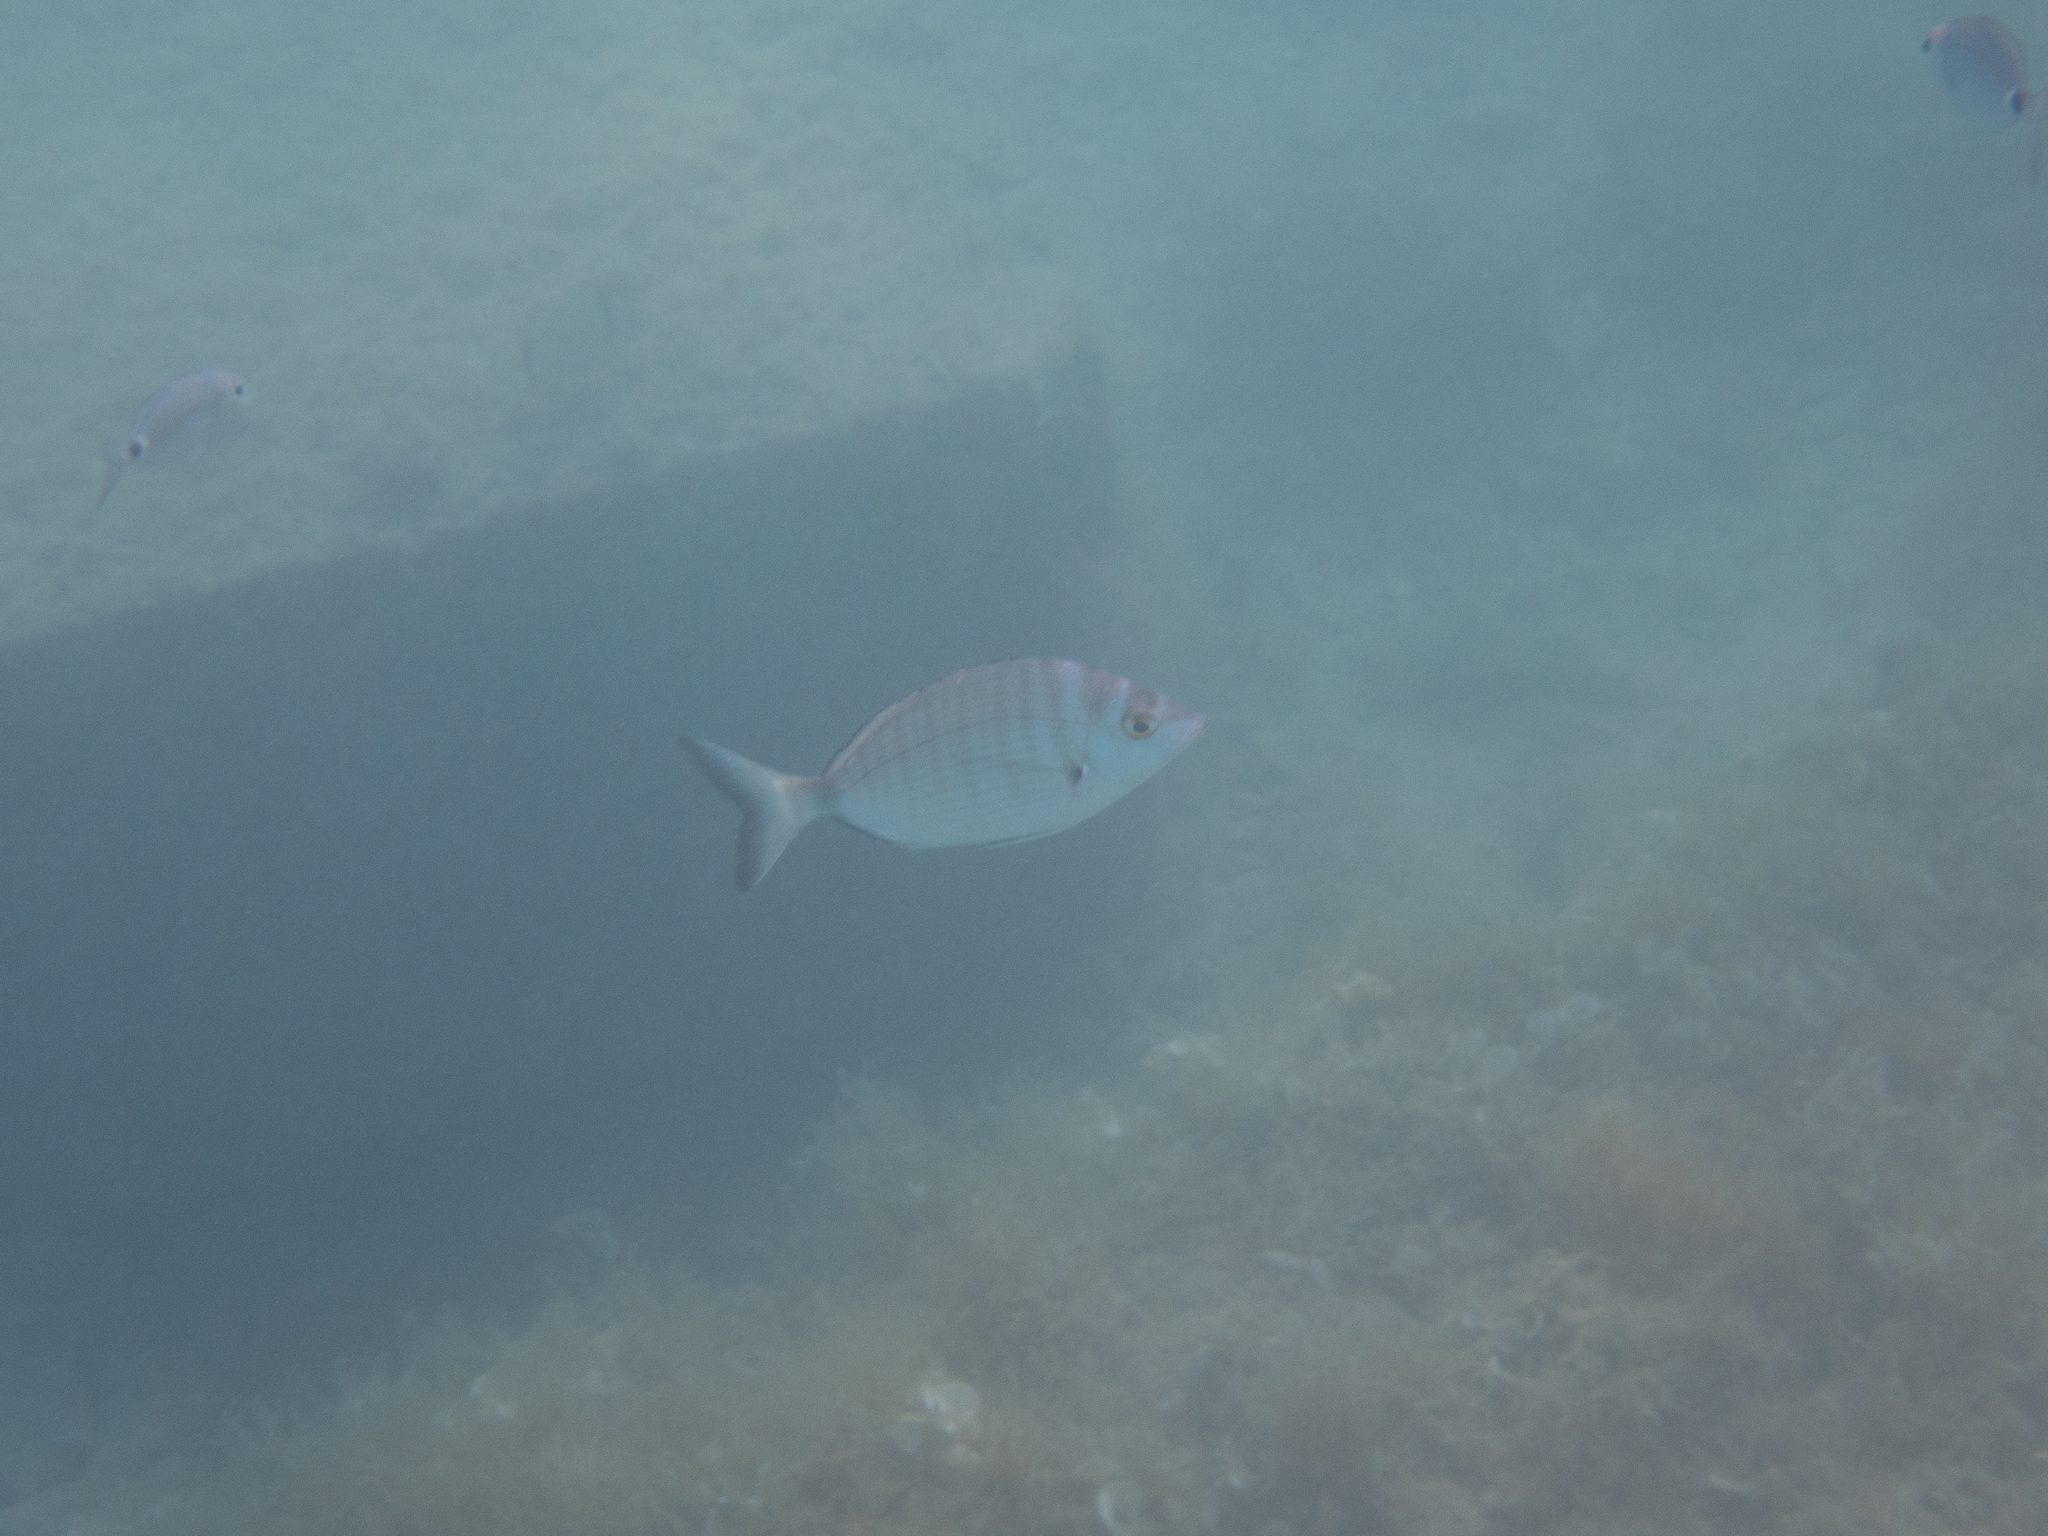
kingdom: Animalia
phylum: Chordata
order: Perciformes
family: Sparidae
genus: Diplodus
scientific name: Diplodus puntazzo
